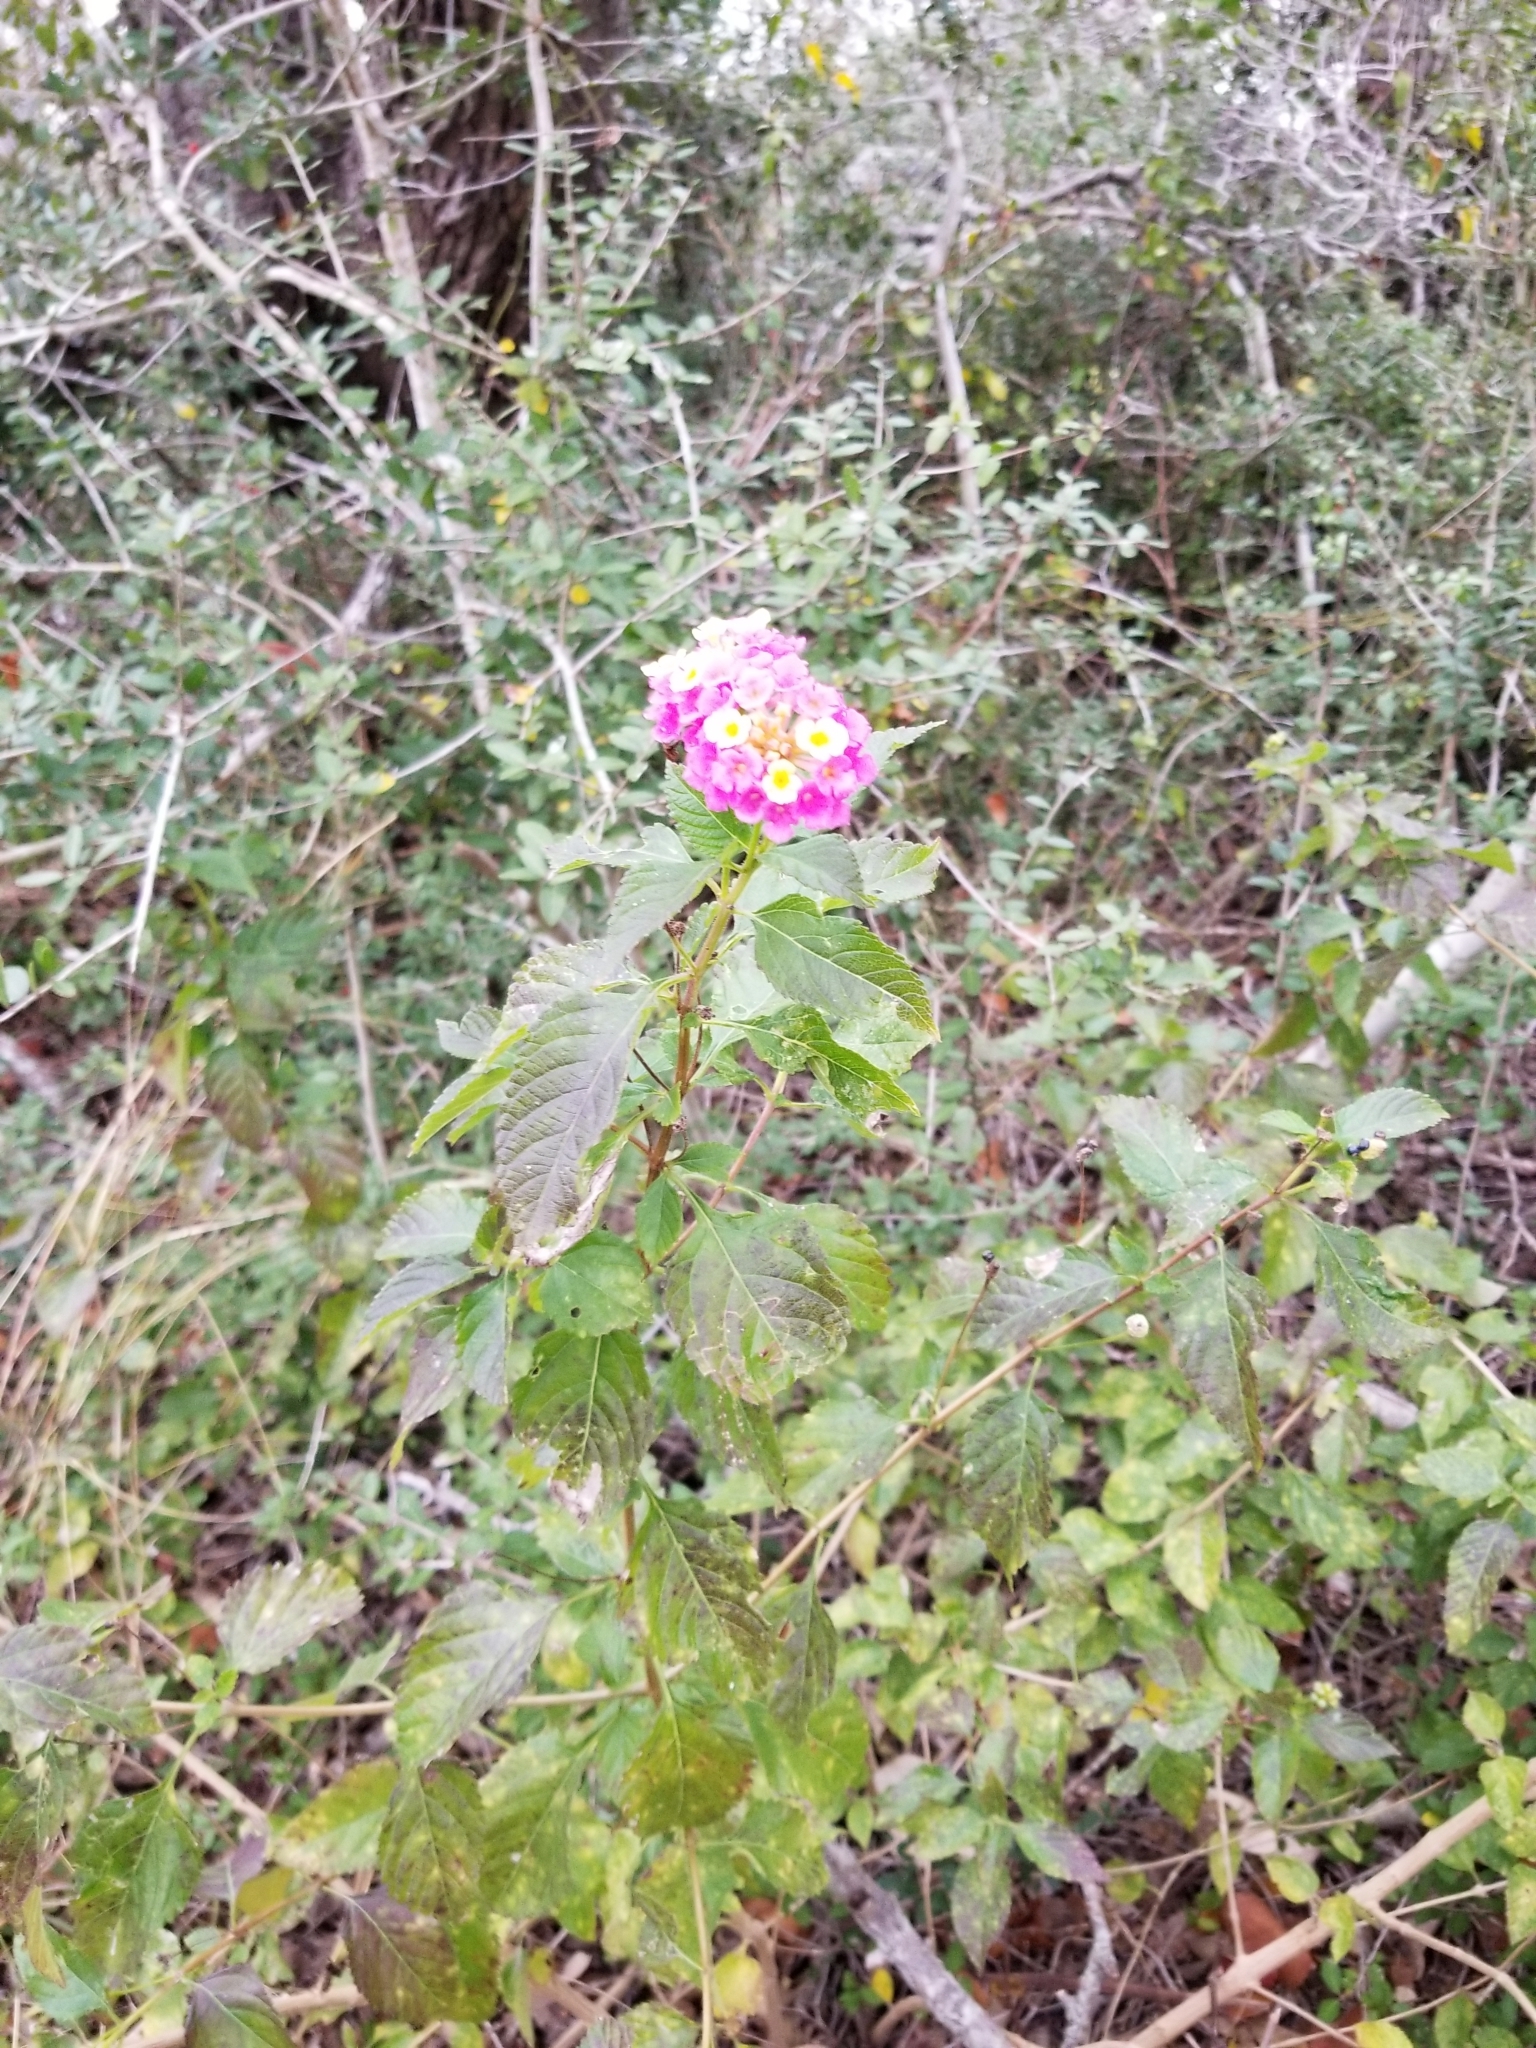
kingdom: Plantae
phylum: Tracheophyta
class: Magnoliopsida
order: Lamiales
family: Verbenaceae
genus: Lantana
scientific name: Lantana strigocamara
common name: Lantana
